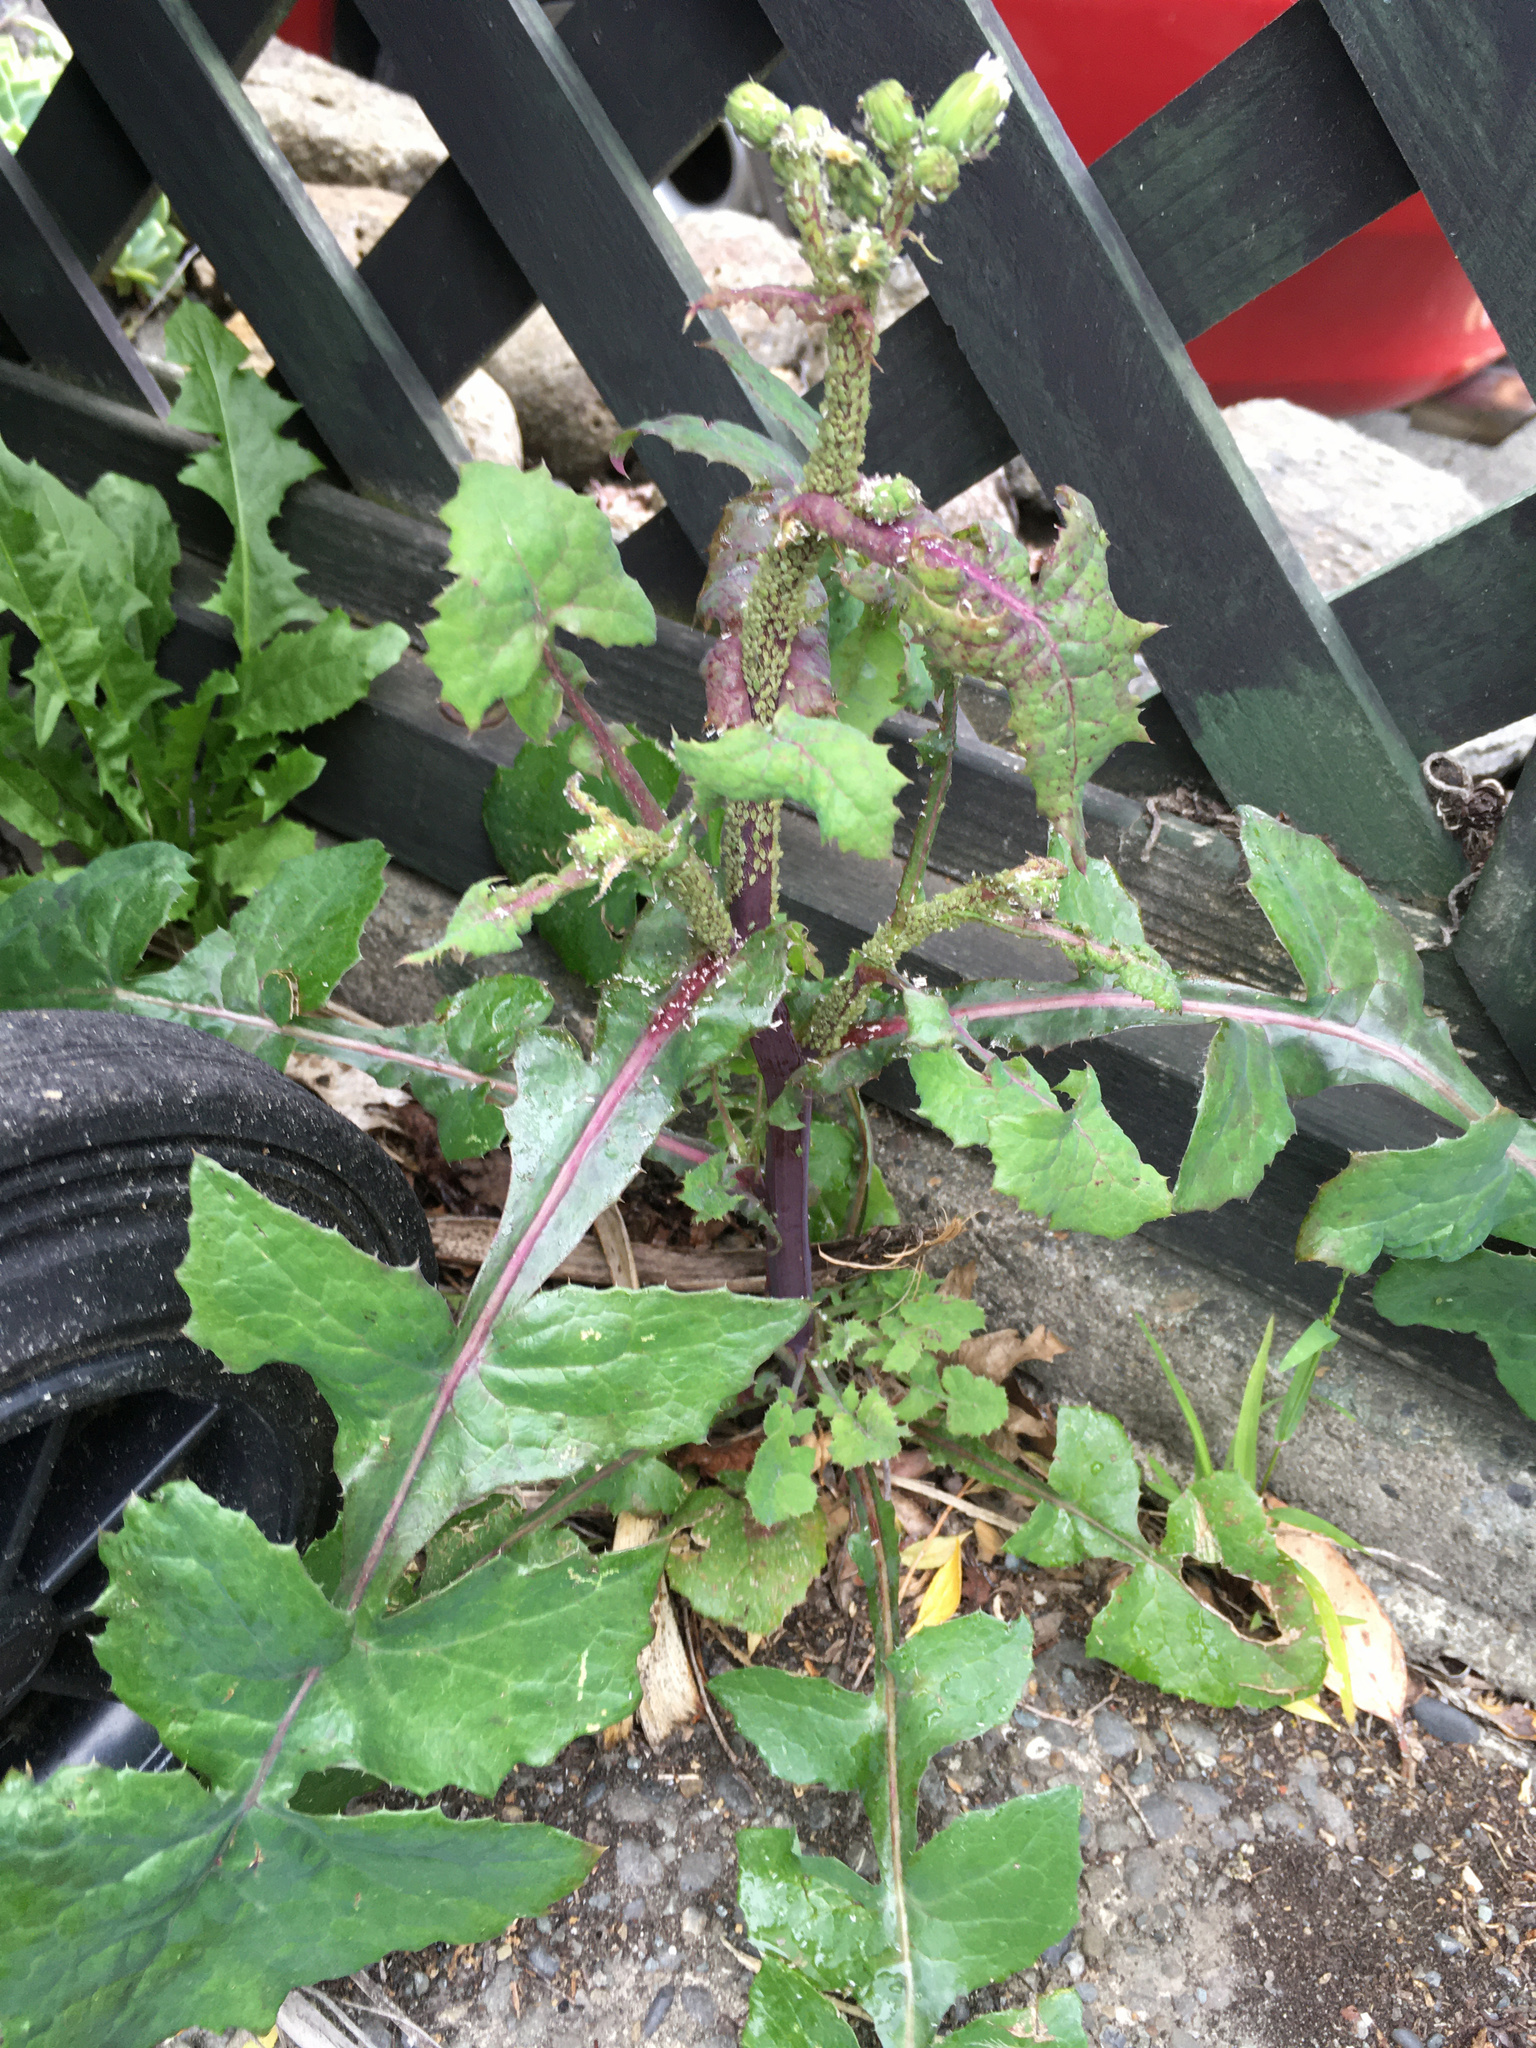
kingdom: Plantae
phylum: Tracheophyta
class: Magnoliopsida
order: Asterales
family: Asteraceae
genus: Sonchus
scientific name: Sonchus oleraceus
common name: Common sowthistle
